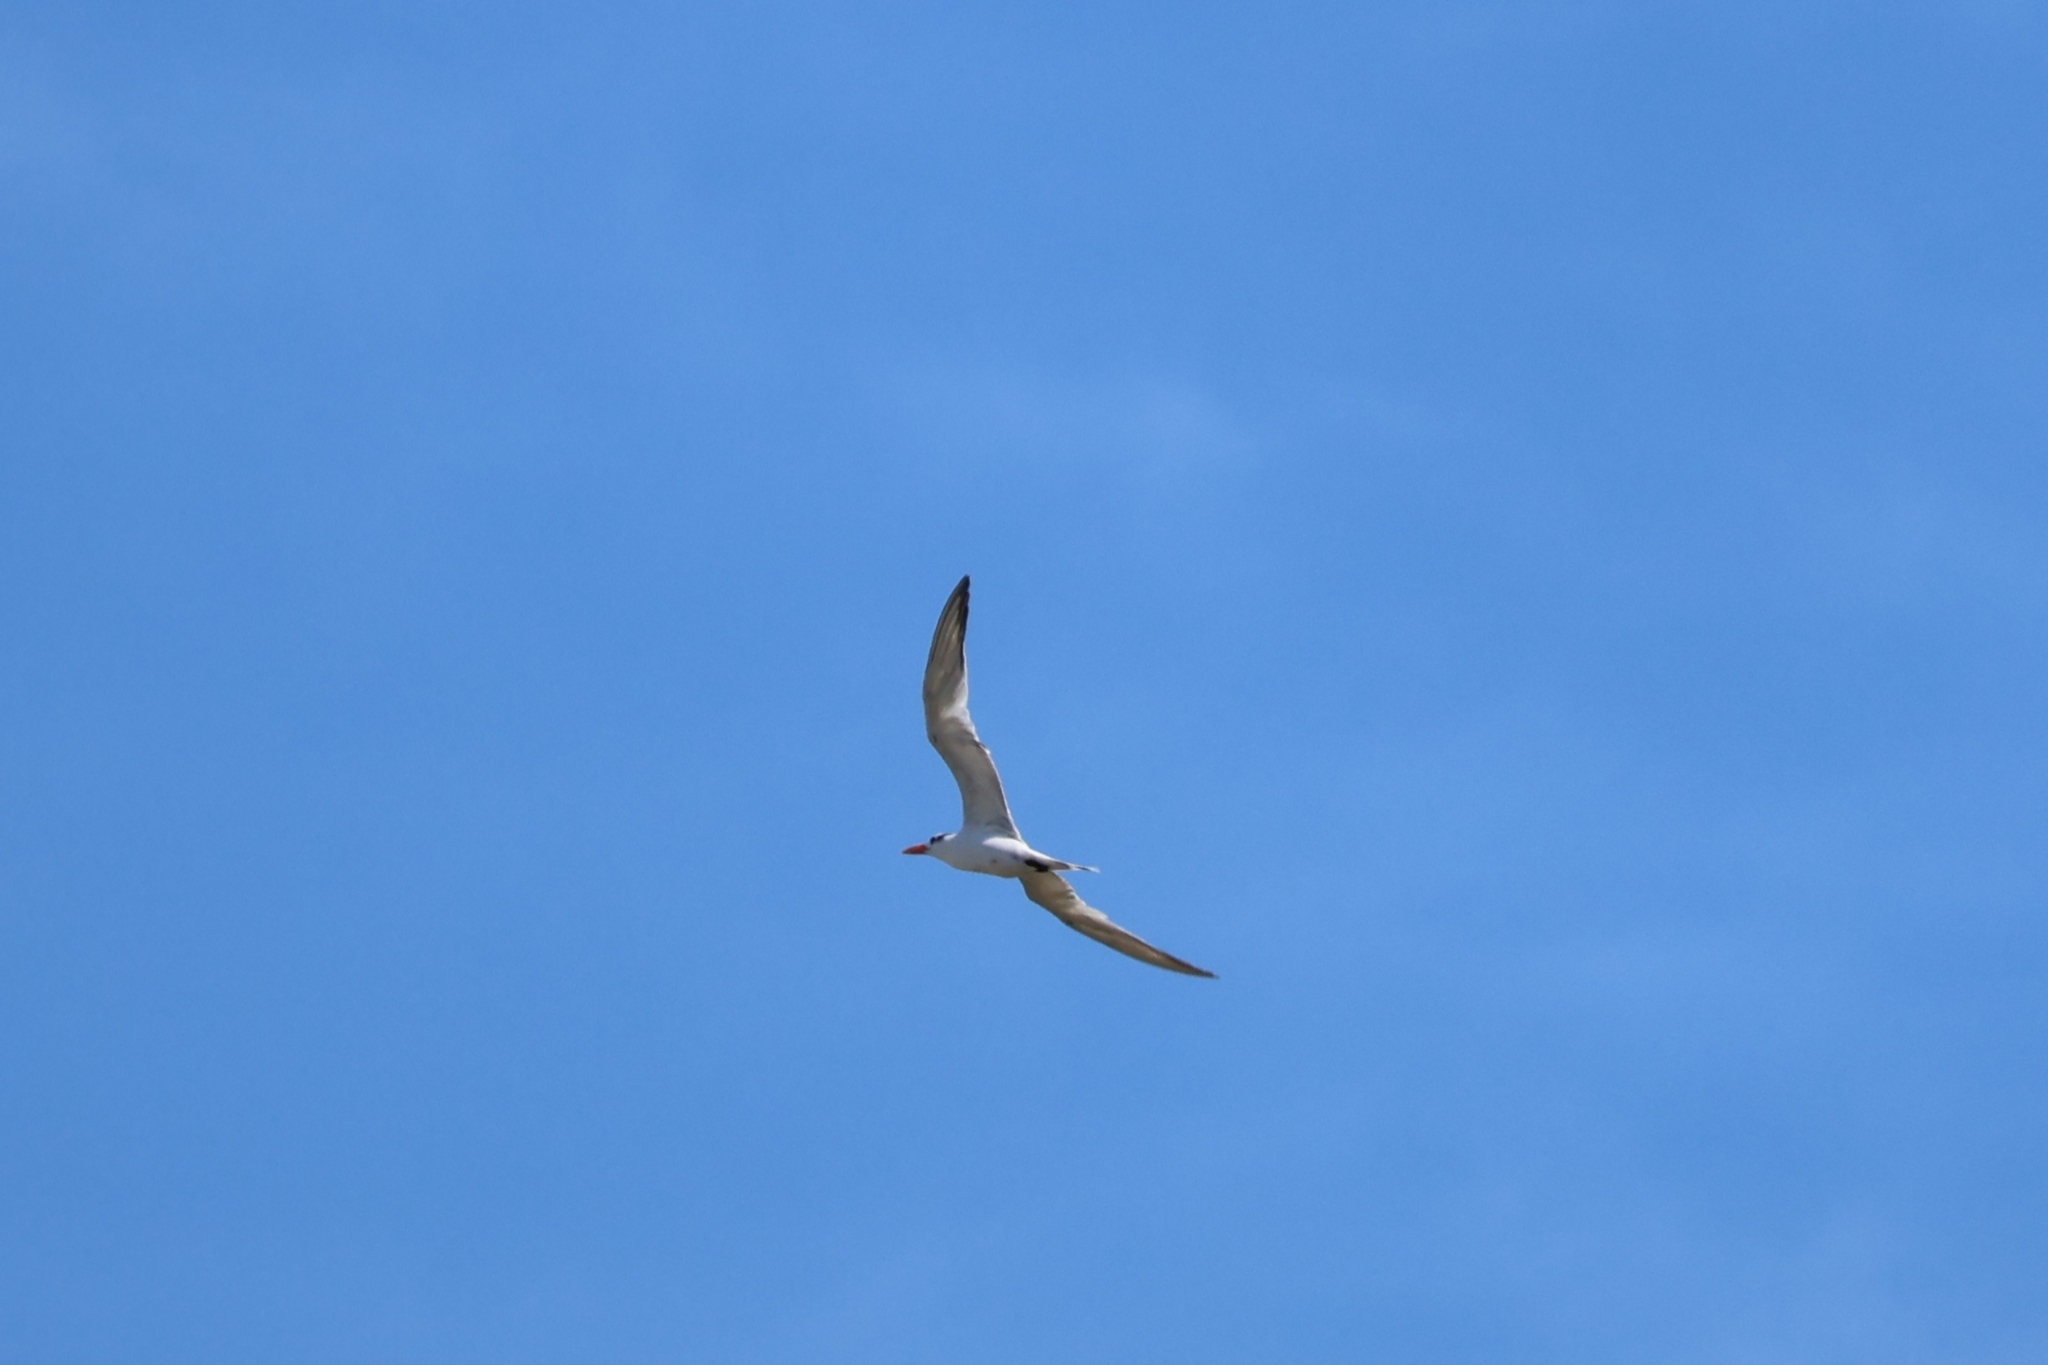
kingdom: Animalia
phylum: Chordata
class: Aves
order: Charadriiformes
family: Laridae
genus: Thalasseus
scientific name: Thalasseus maximus
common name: Royal tern
